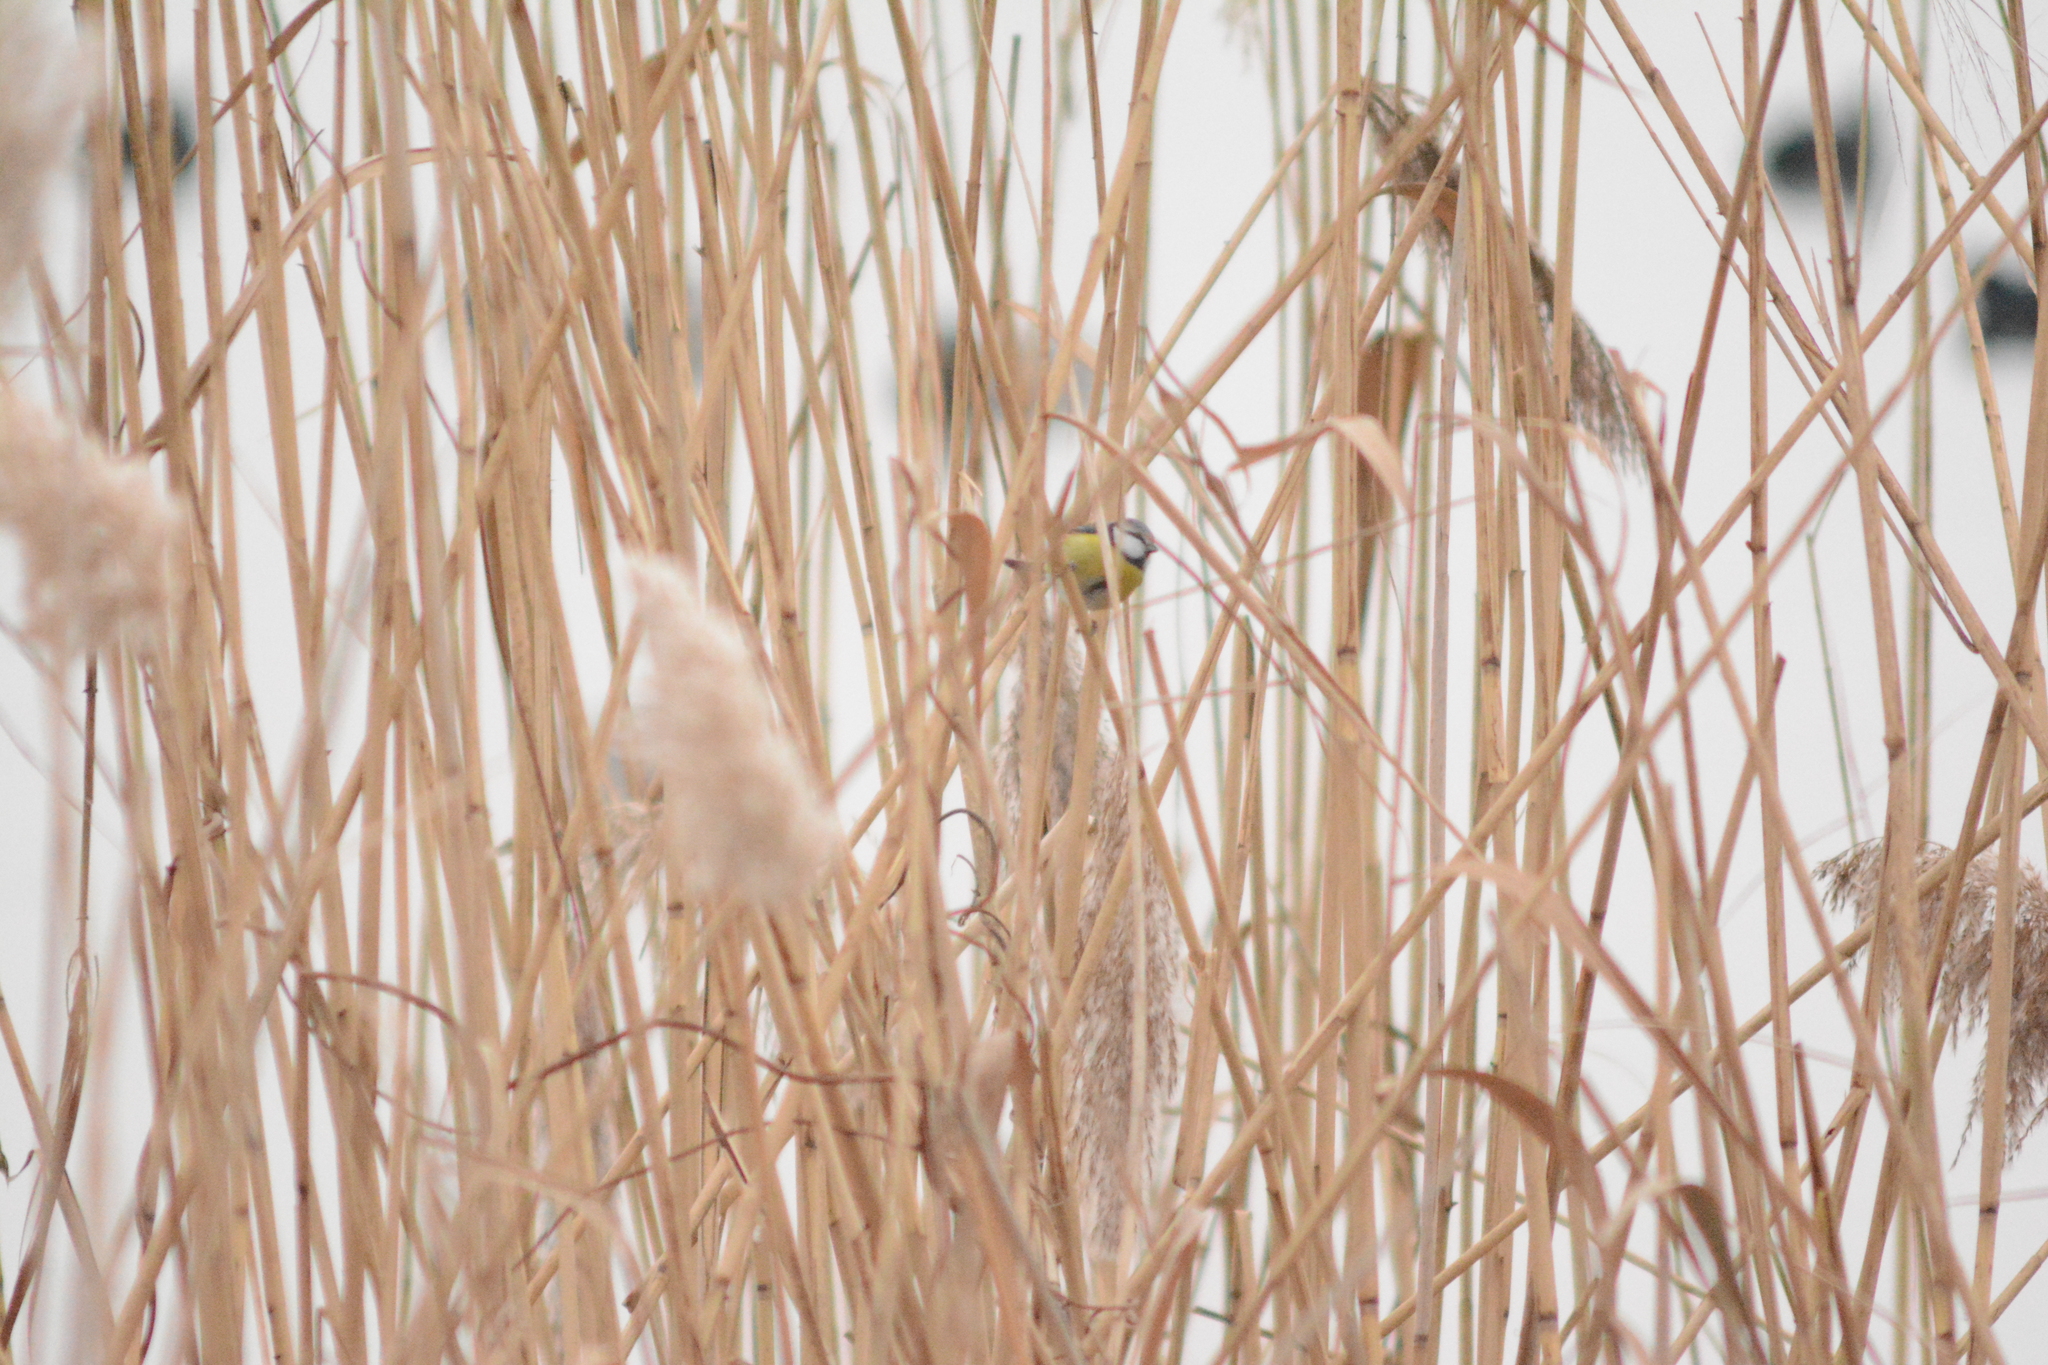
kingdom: Animalia
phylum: Chordata
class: Aves
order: Passeriformes
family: Paridae
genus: Cyanistes
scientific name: Cyanistes caeruleus
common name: Eurasian blue tit
